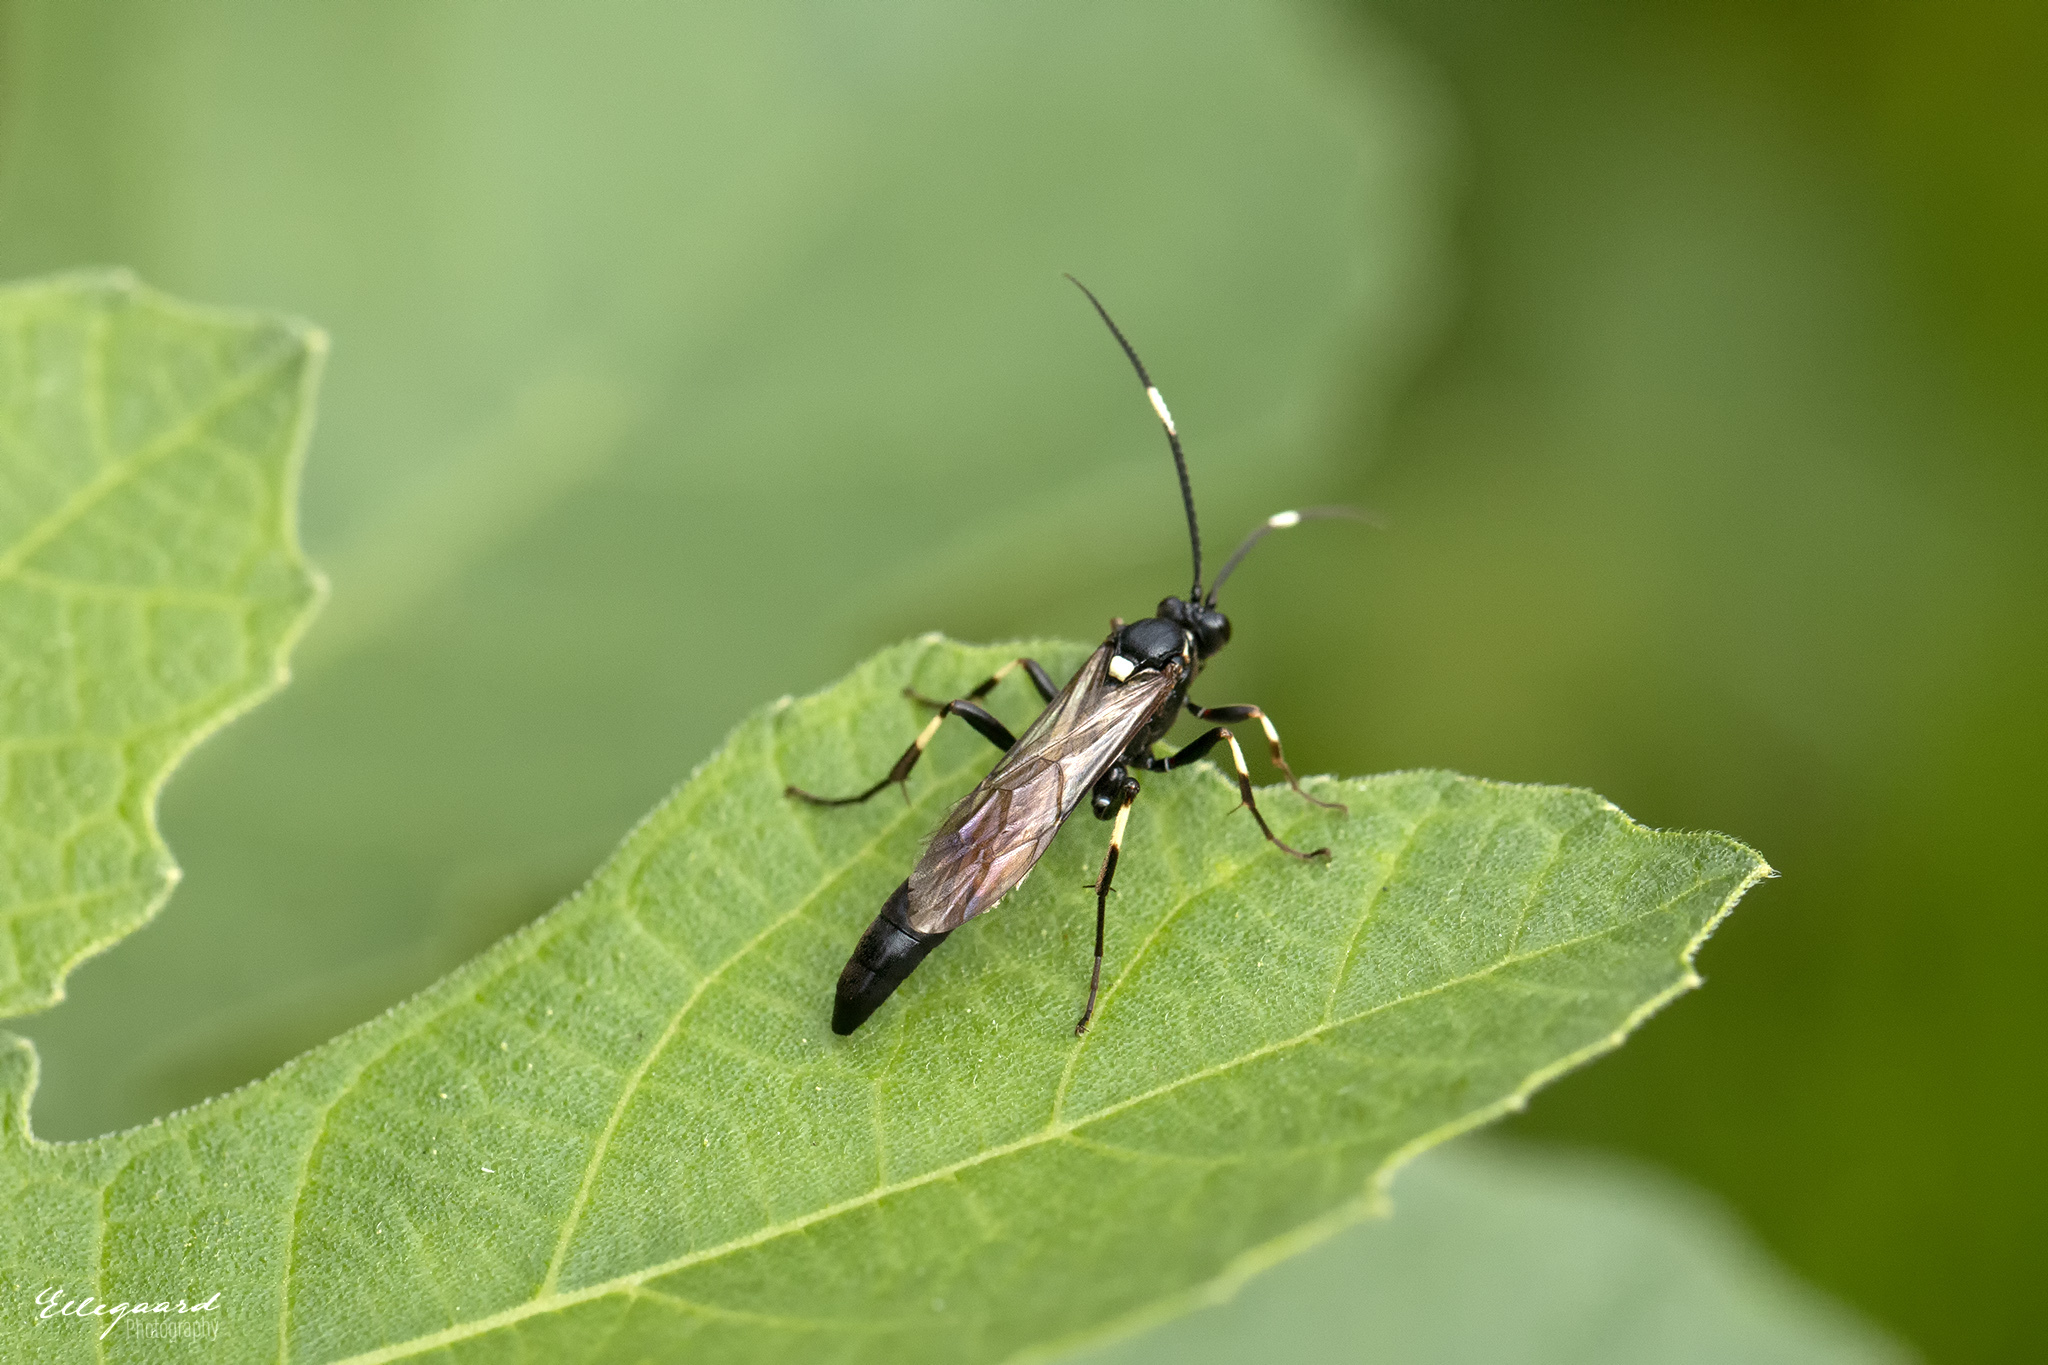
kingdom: Animalia
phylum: Arthropoda
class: Insecta
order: Hymenoptera
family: Ichneumonidae
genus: Stenichneumon
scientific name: Stenichneumon militarius
